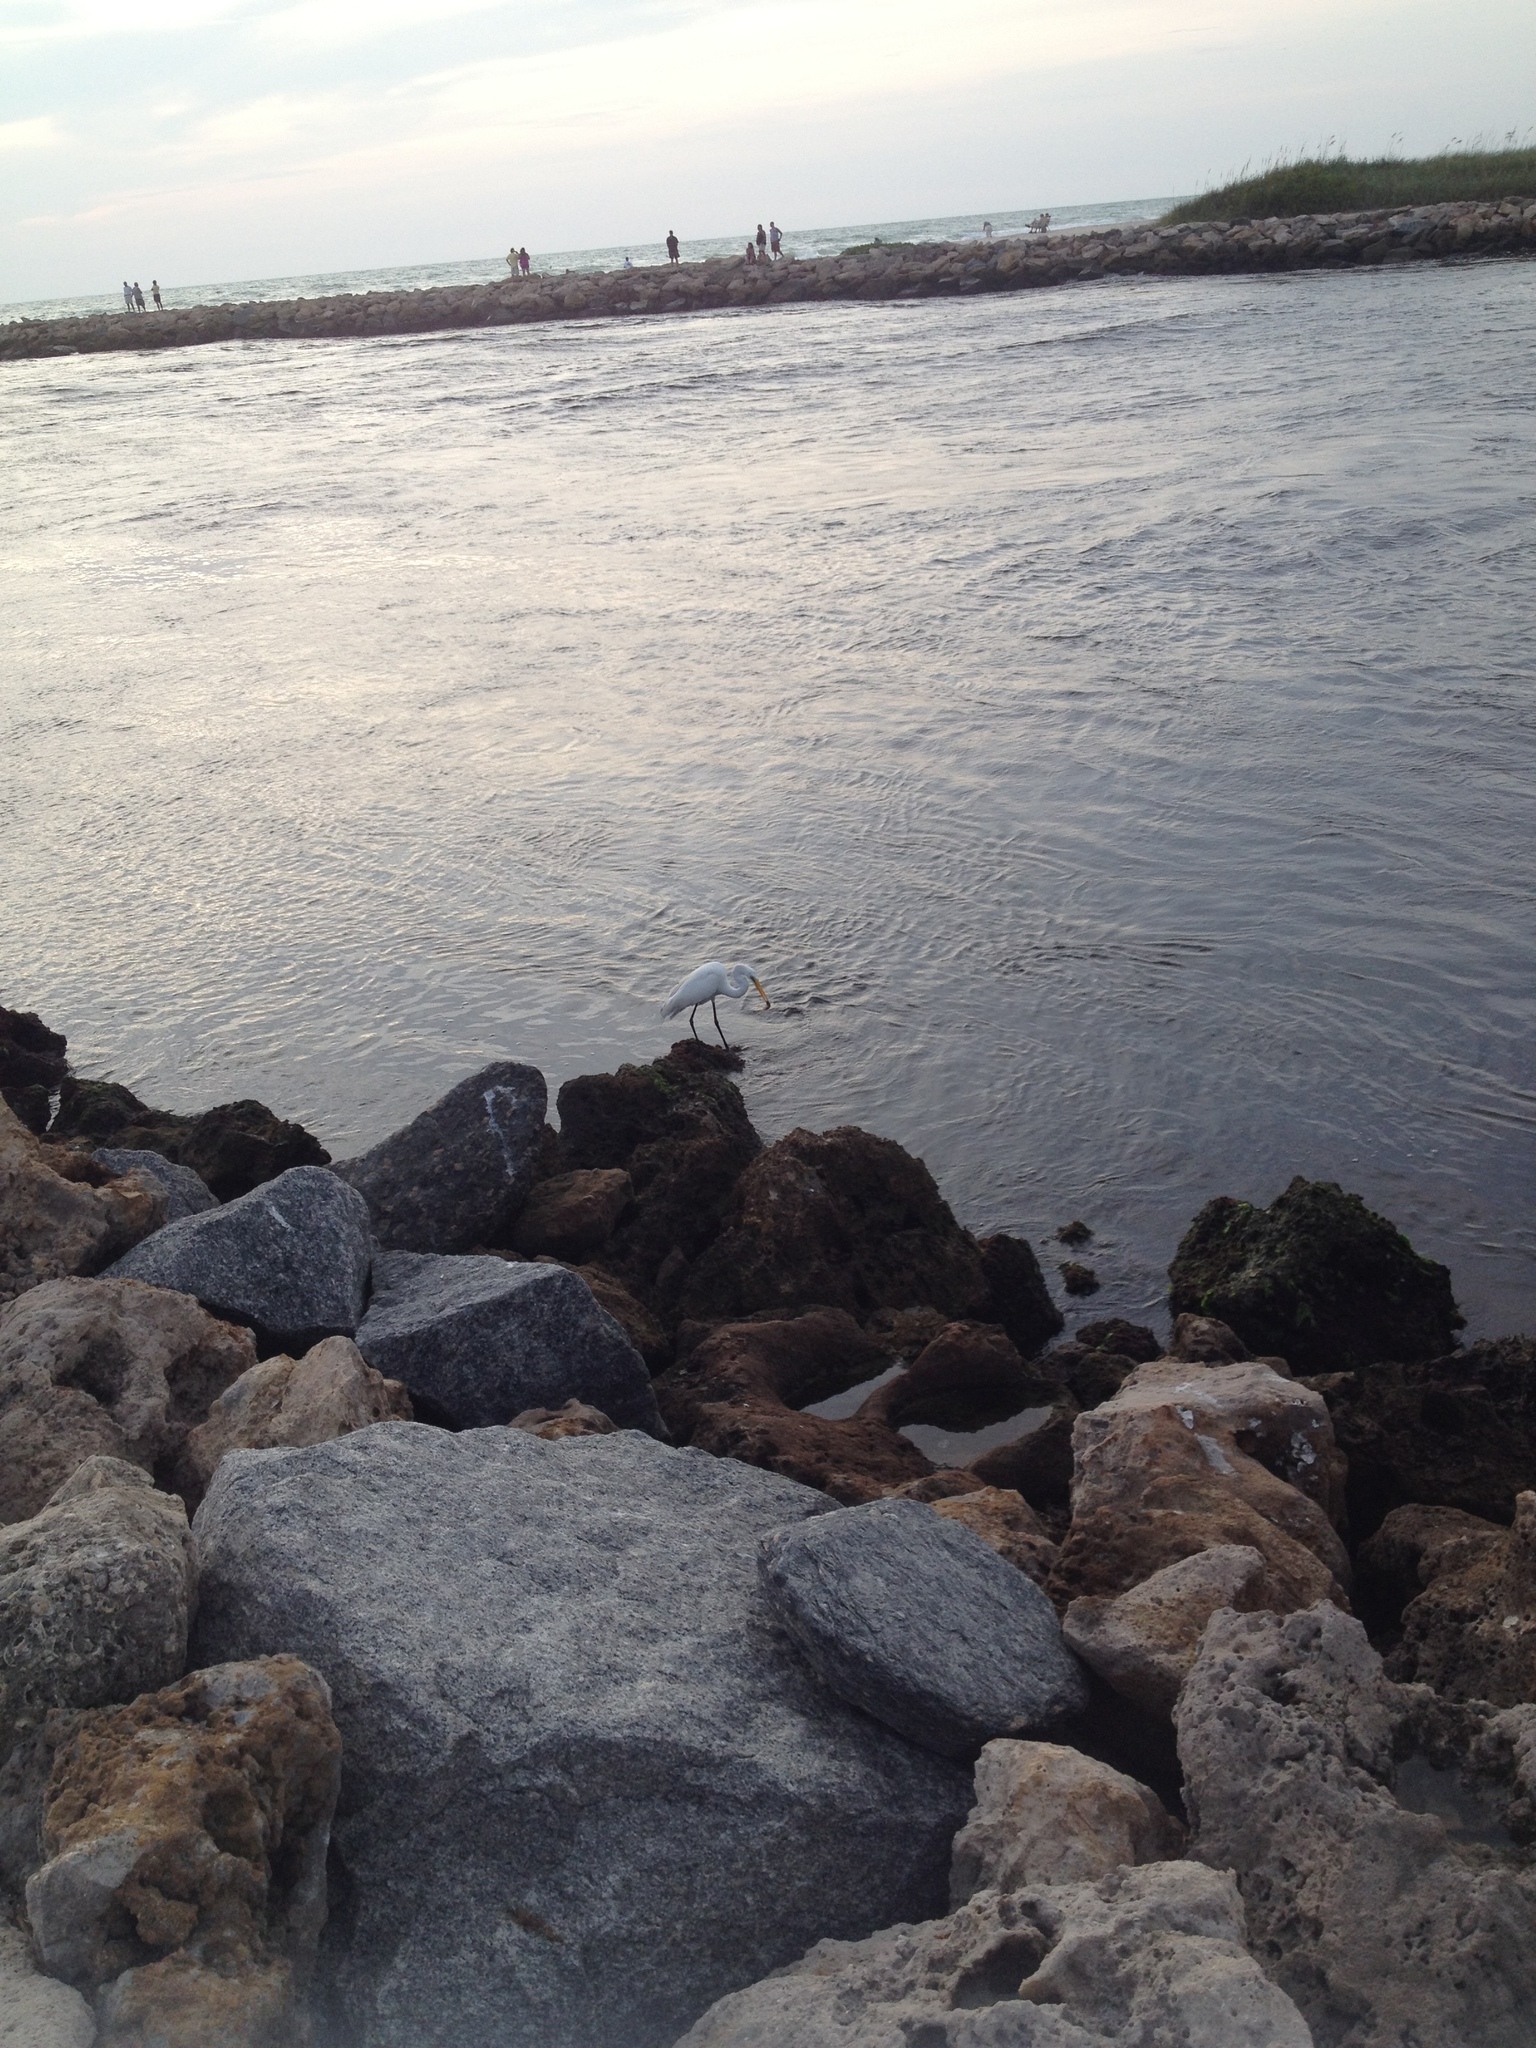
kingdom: Animalia
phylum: Chordata
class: Aves
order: Pelecaniformes
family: Ardeidae
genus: Ardea
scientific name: Ardea alba
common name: Great egret
